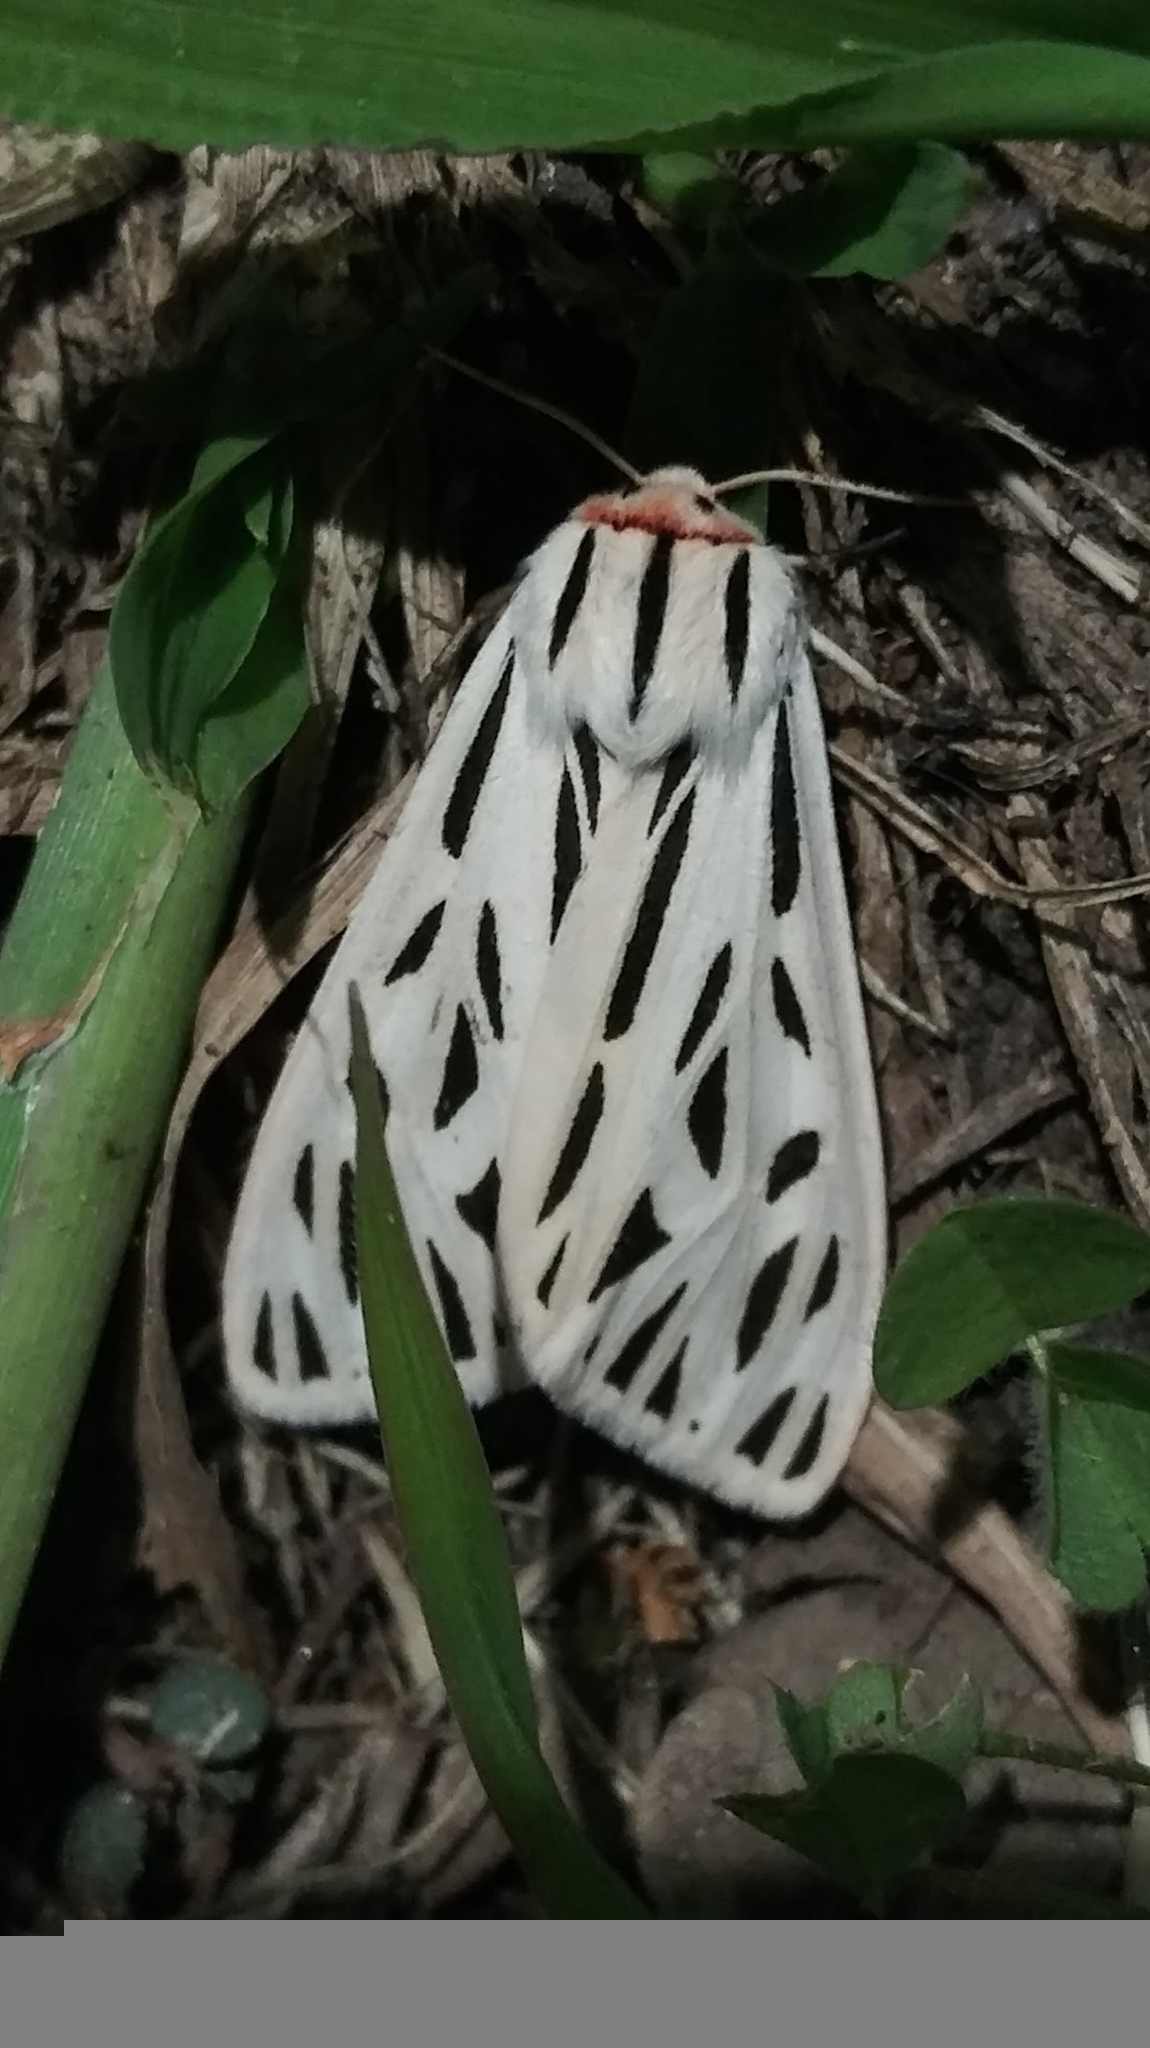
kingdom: Animalia
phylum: Arthropoda
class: Insecta
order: Lepidoptera
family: Erebidae
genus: Apantesis
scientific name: Apantesis arge
